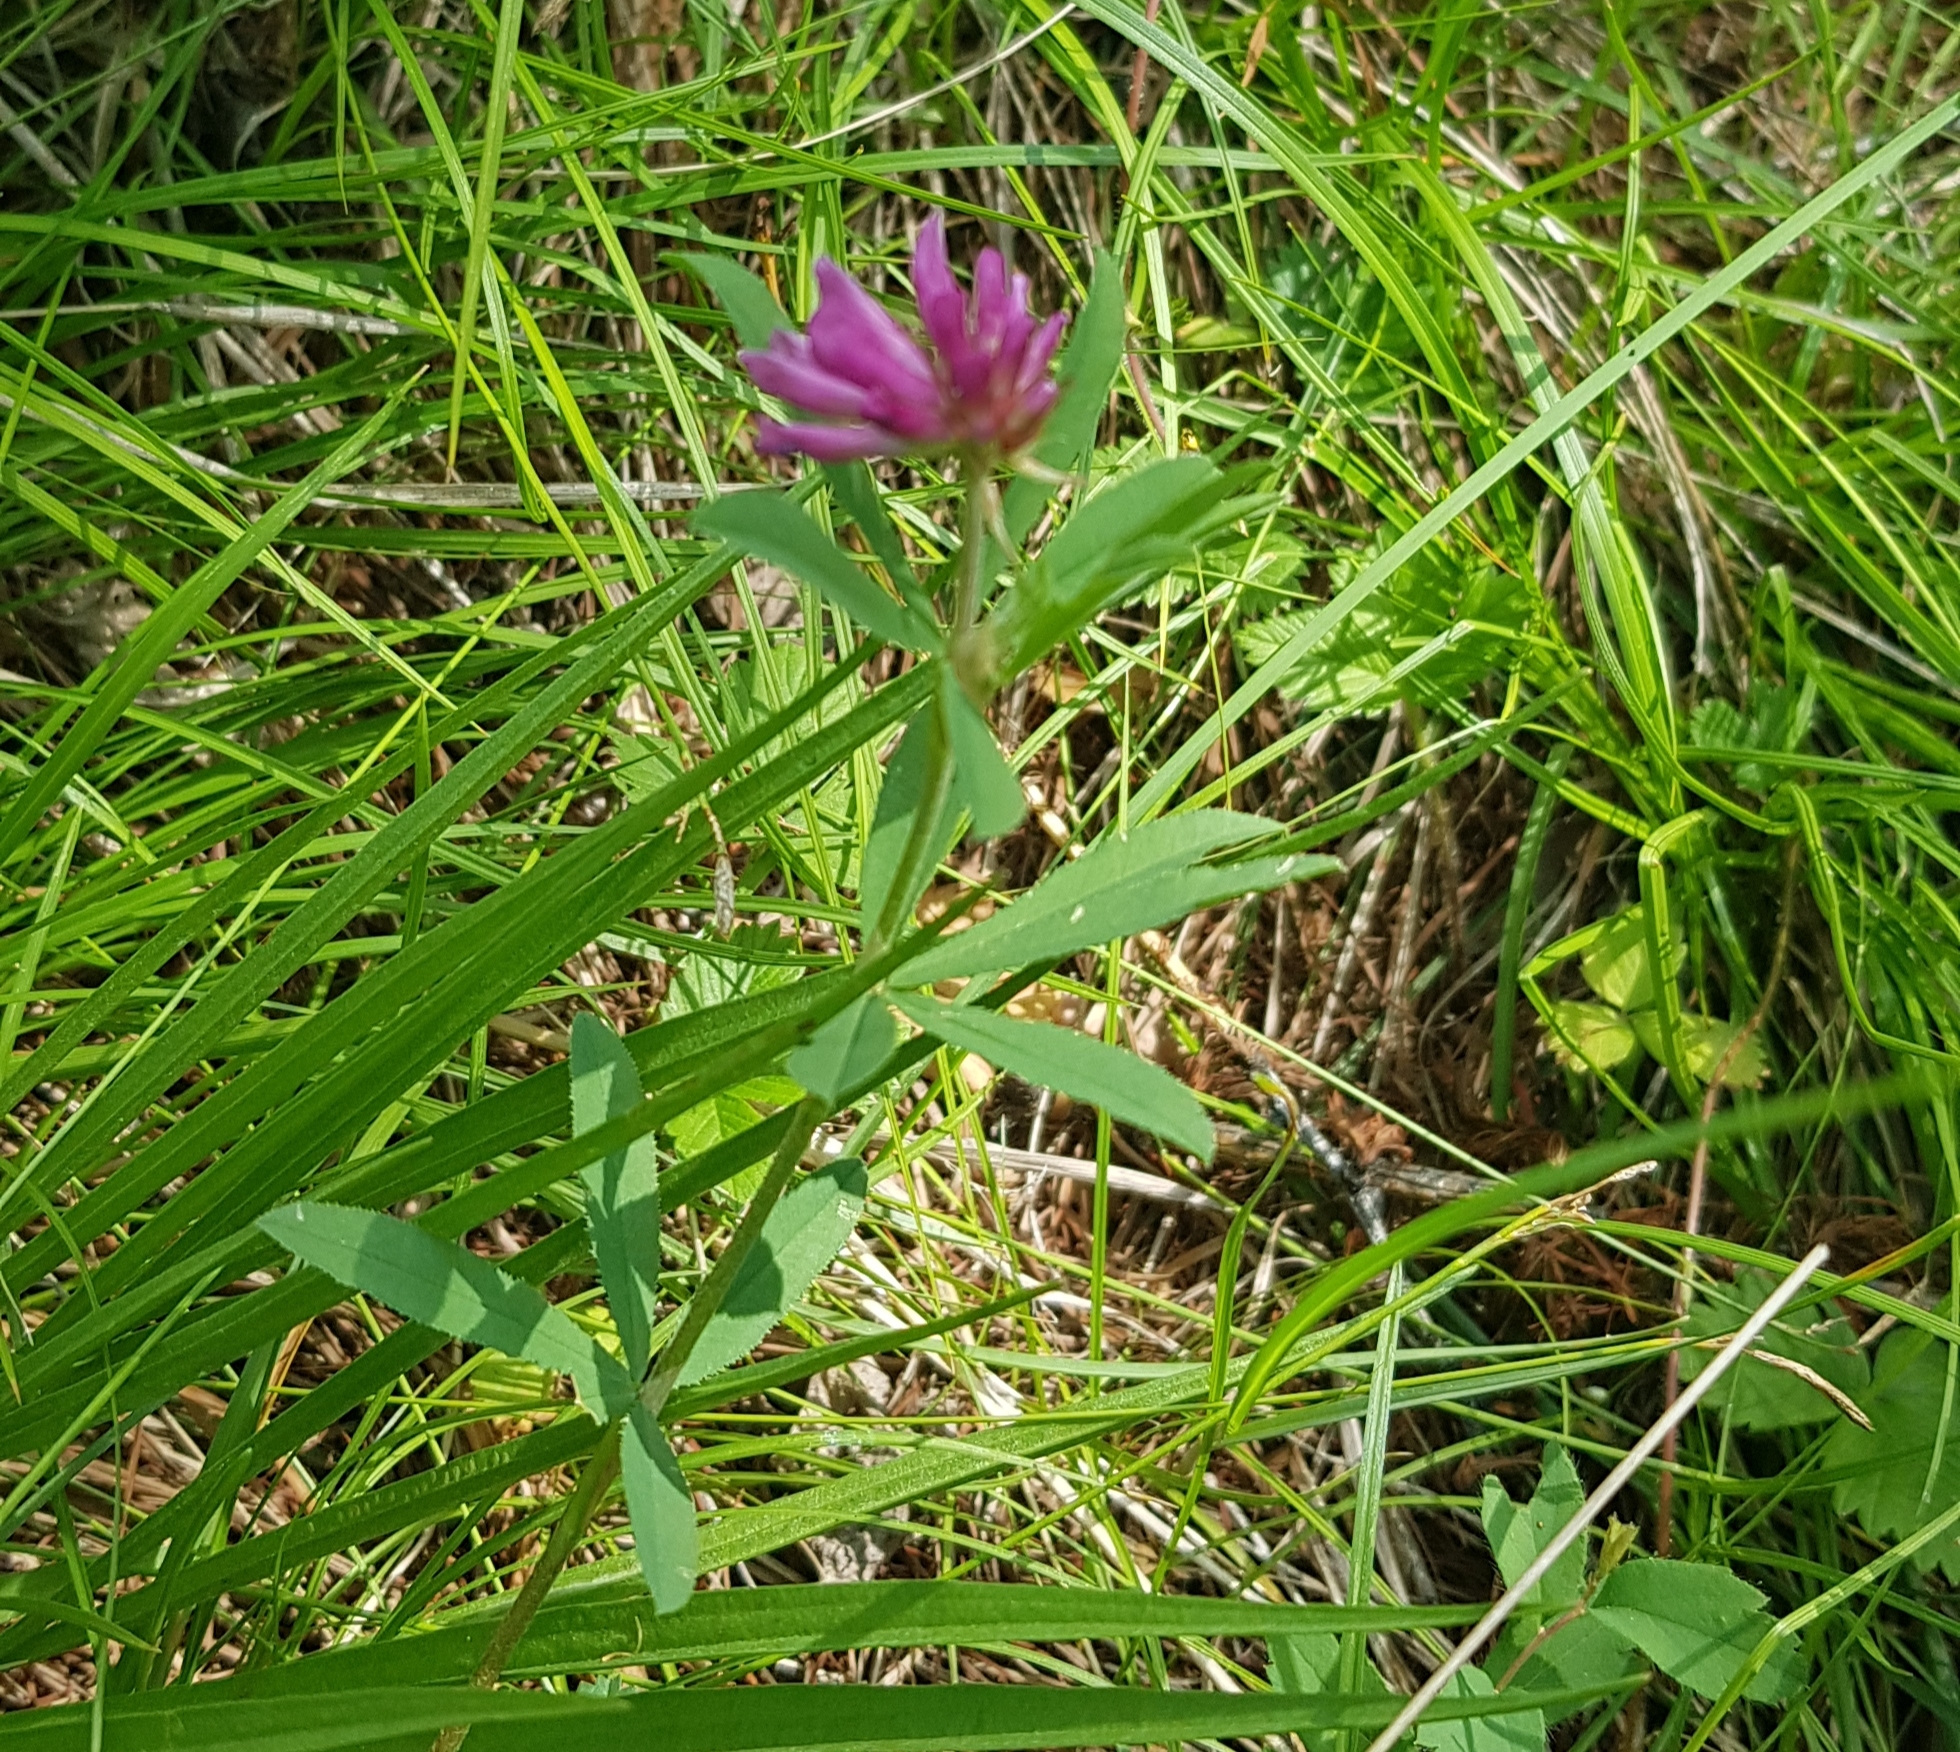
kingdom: Plantae
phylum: Tracheophyta
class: Magnoliopsida
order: Fabales
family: Fabaceae
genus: Trifolium
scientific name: Trifolium lupinaster
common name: Lupine clover
